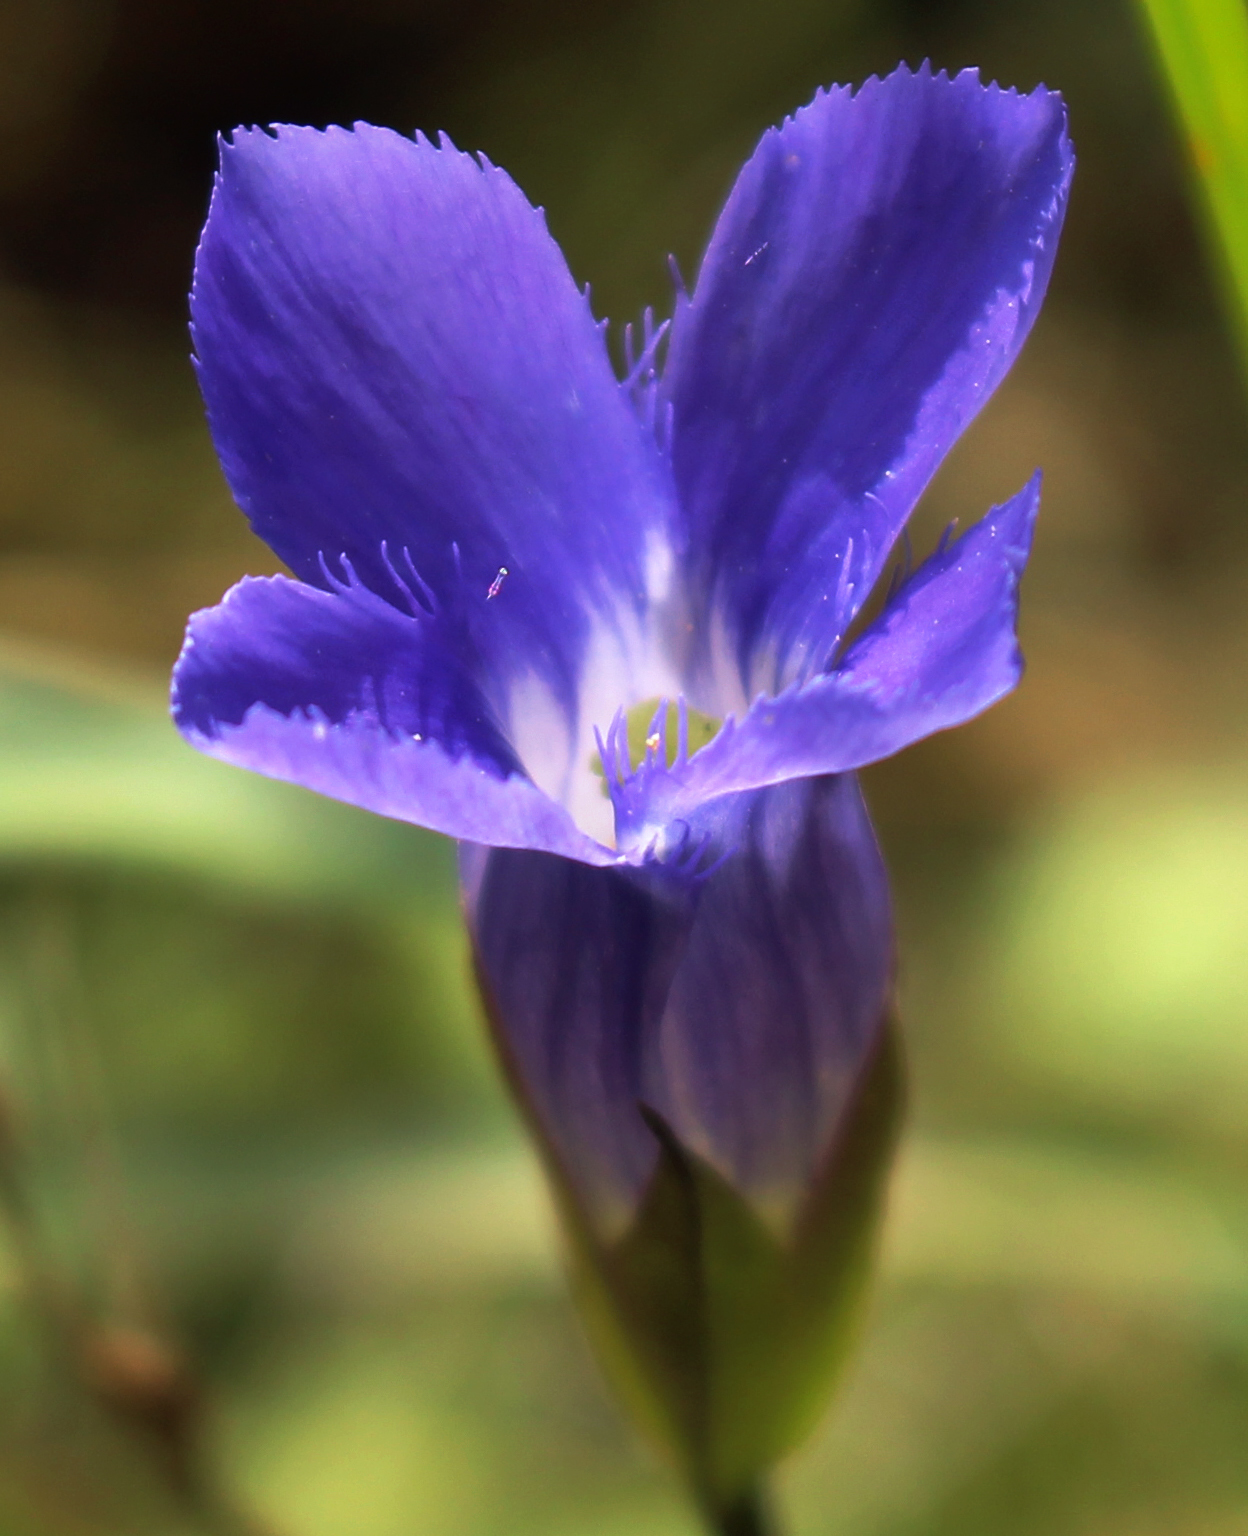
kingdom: Plantae
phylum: Tracheophyta
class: Magnoliopsida
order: Gentianales
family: Gentianaceae
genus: Gentianopsis
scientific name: Gentianopsis virgata
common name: Lesser fringed-gentian
